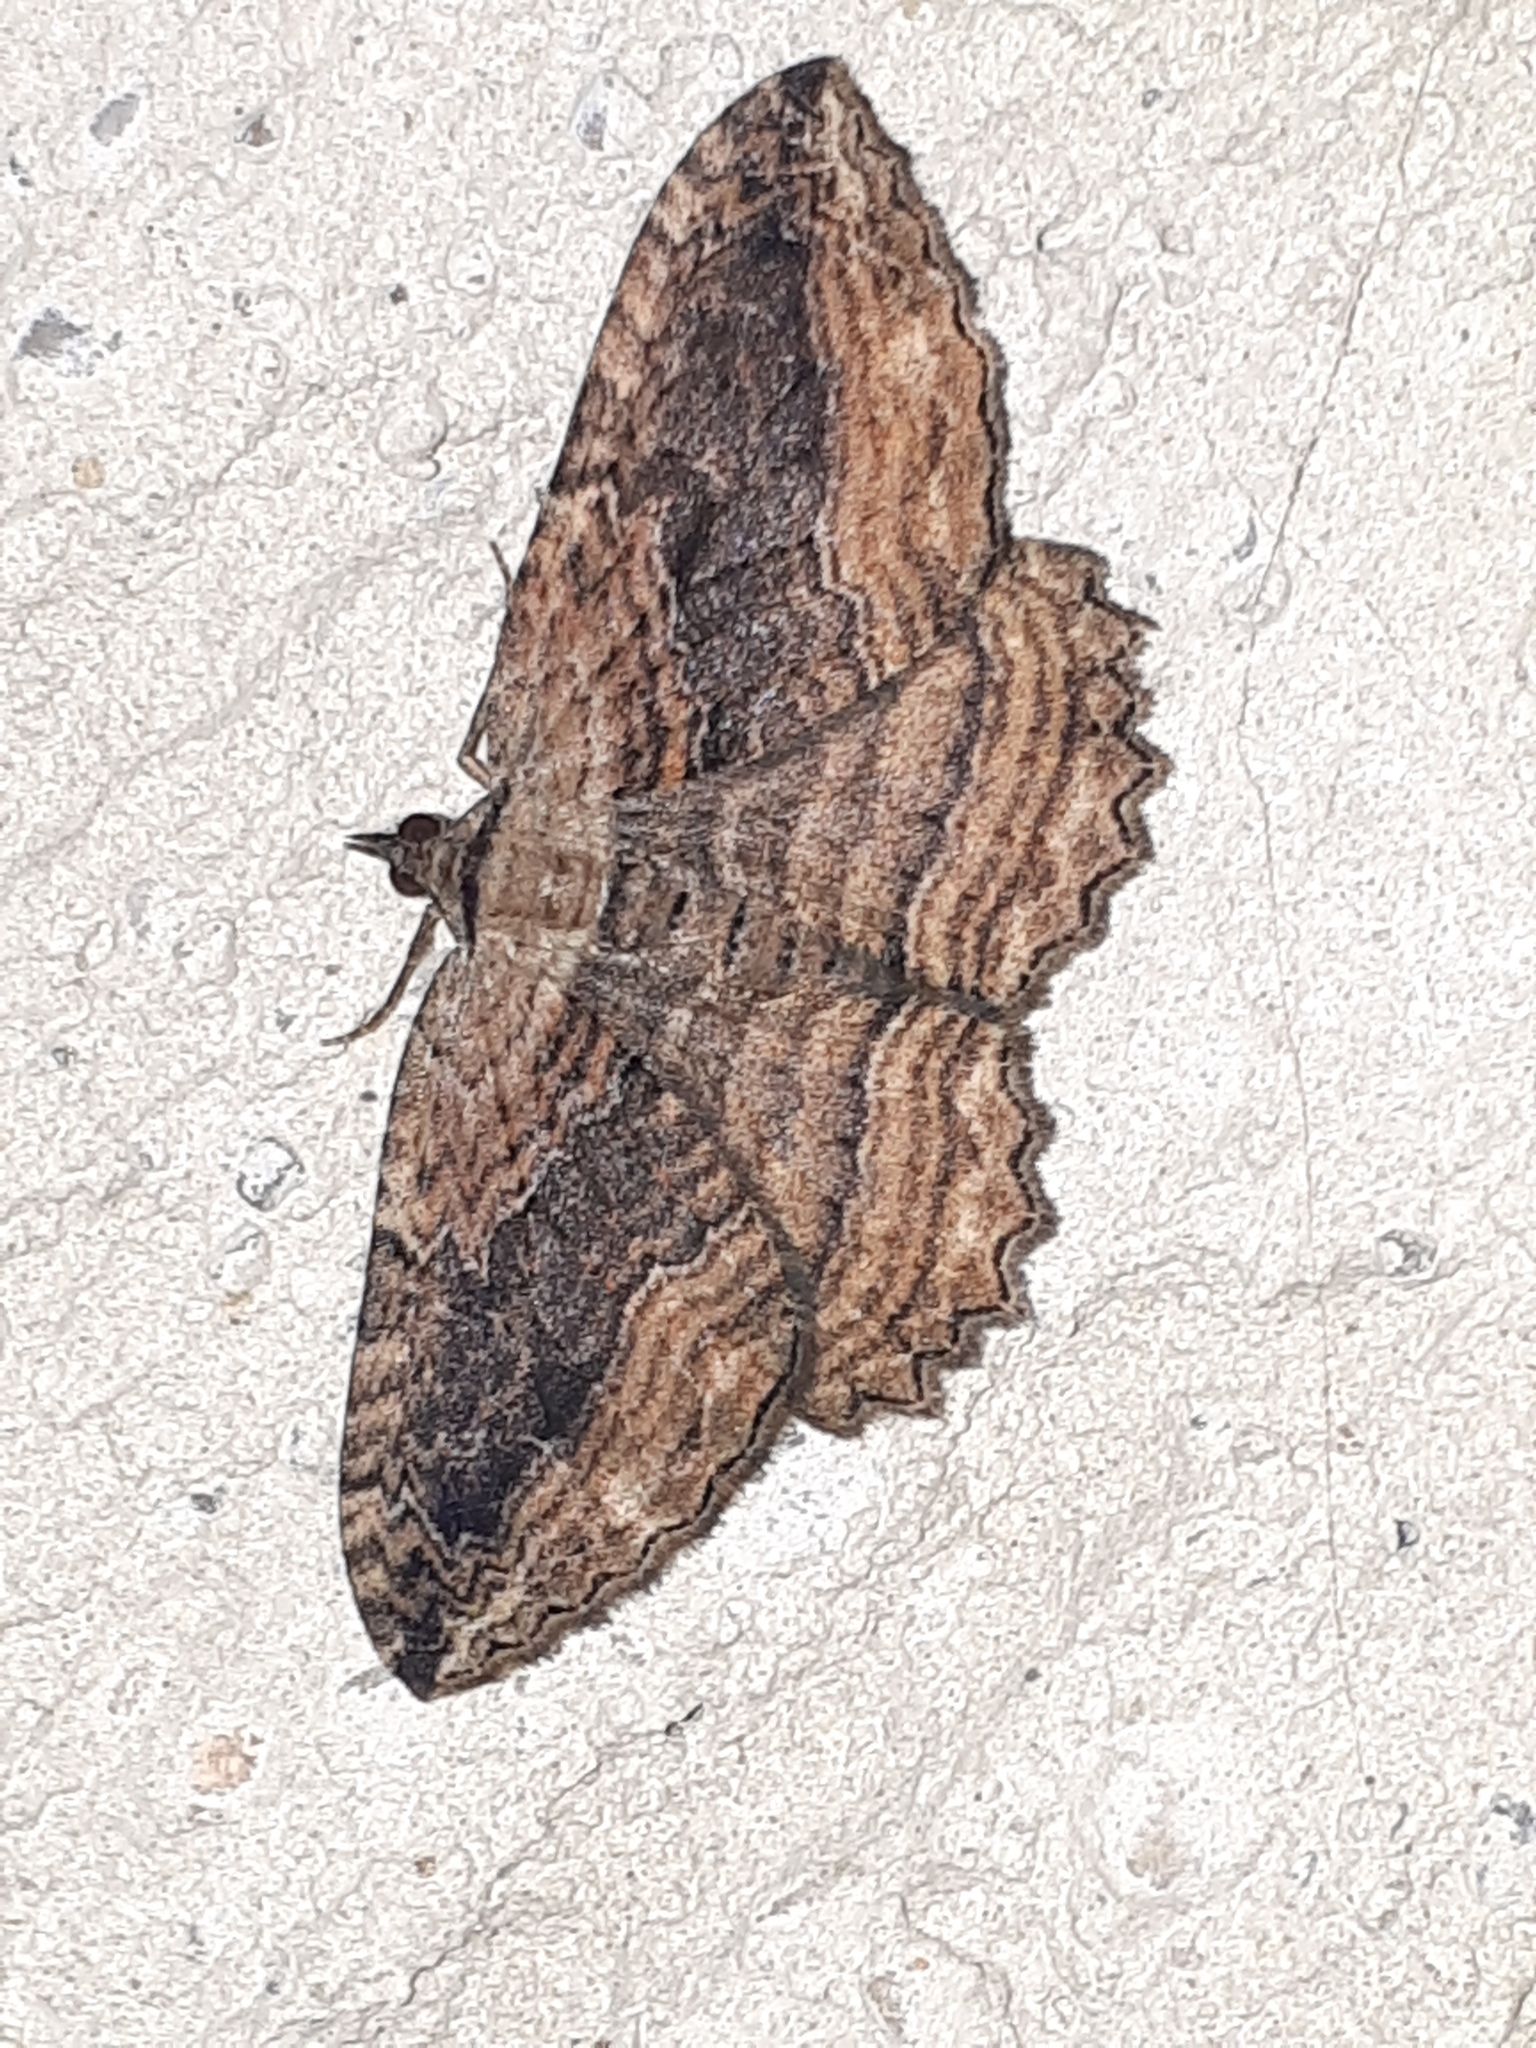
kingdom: Animalia
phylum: Arthropoda
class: Insecta
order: Lepidoptera
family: Geometridae
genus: Philereme
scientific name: Philereme transversata
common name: Dark umber
